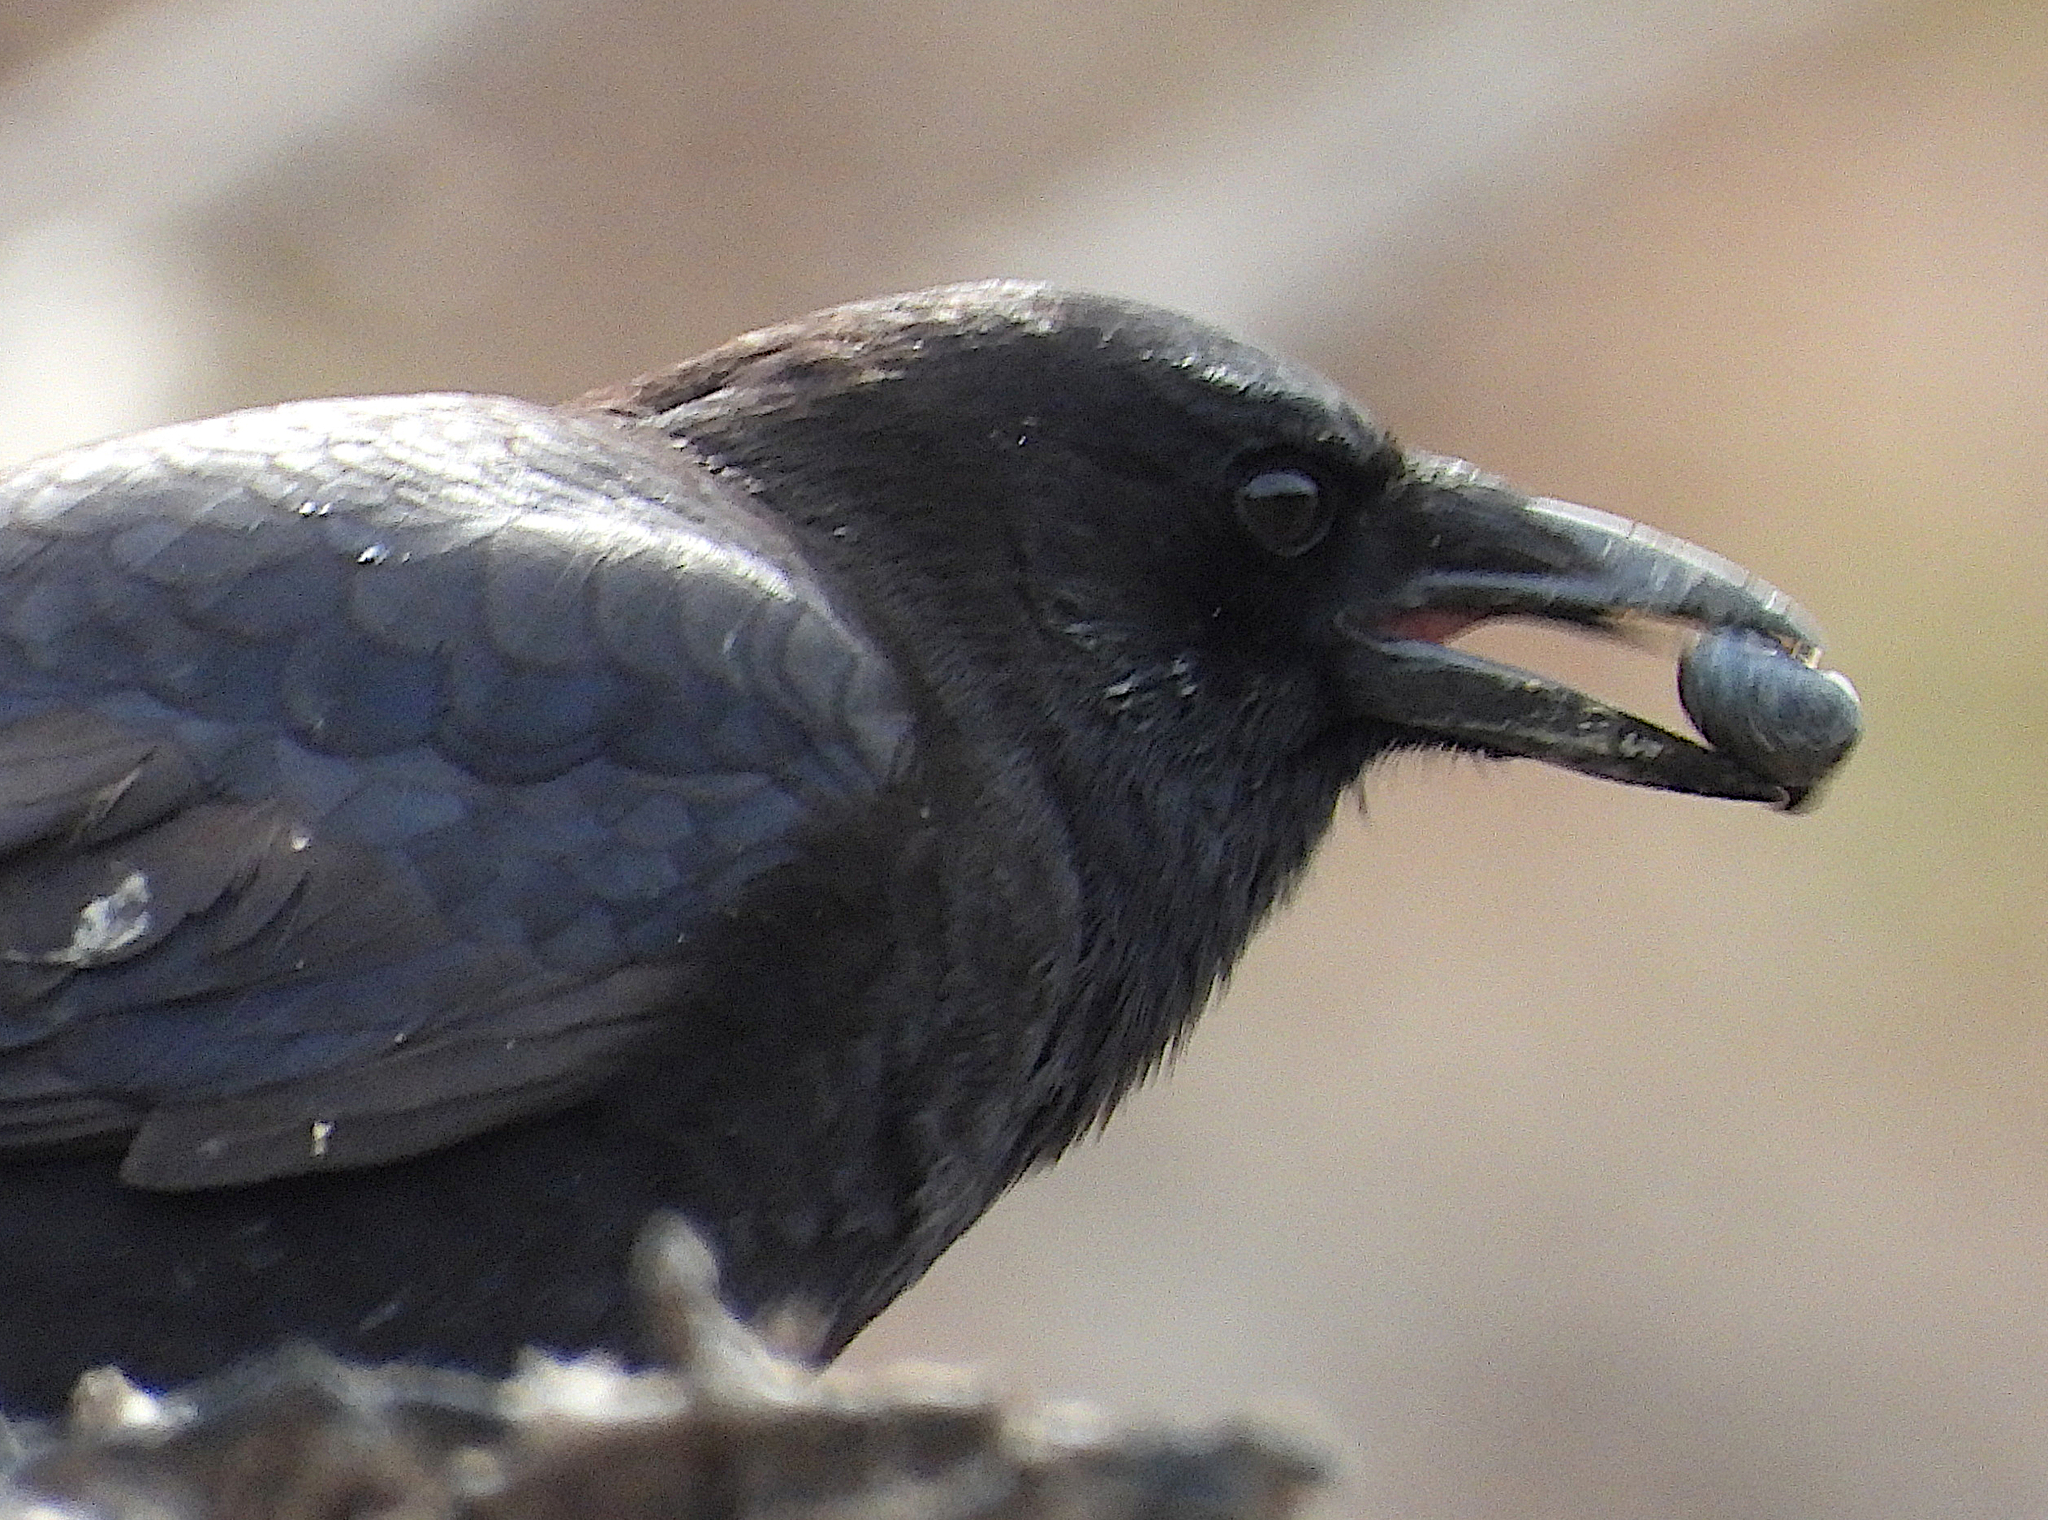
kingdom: Animalia
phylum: Chordata
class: Aves
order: Passeriformes
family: Corvidae
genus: Corvus
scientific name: Corvus brachyrhynchos
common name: American crow
